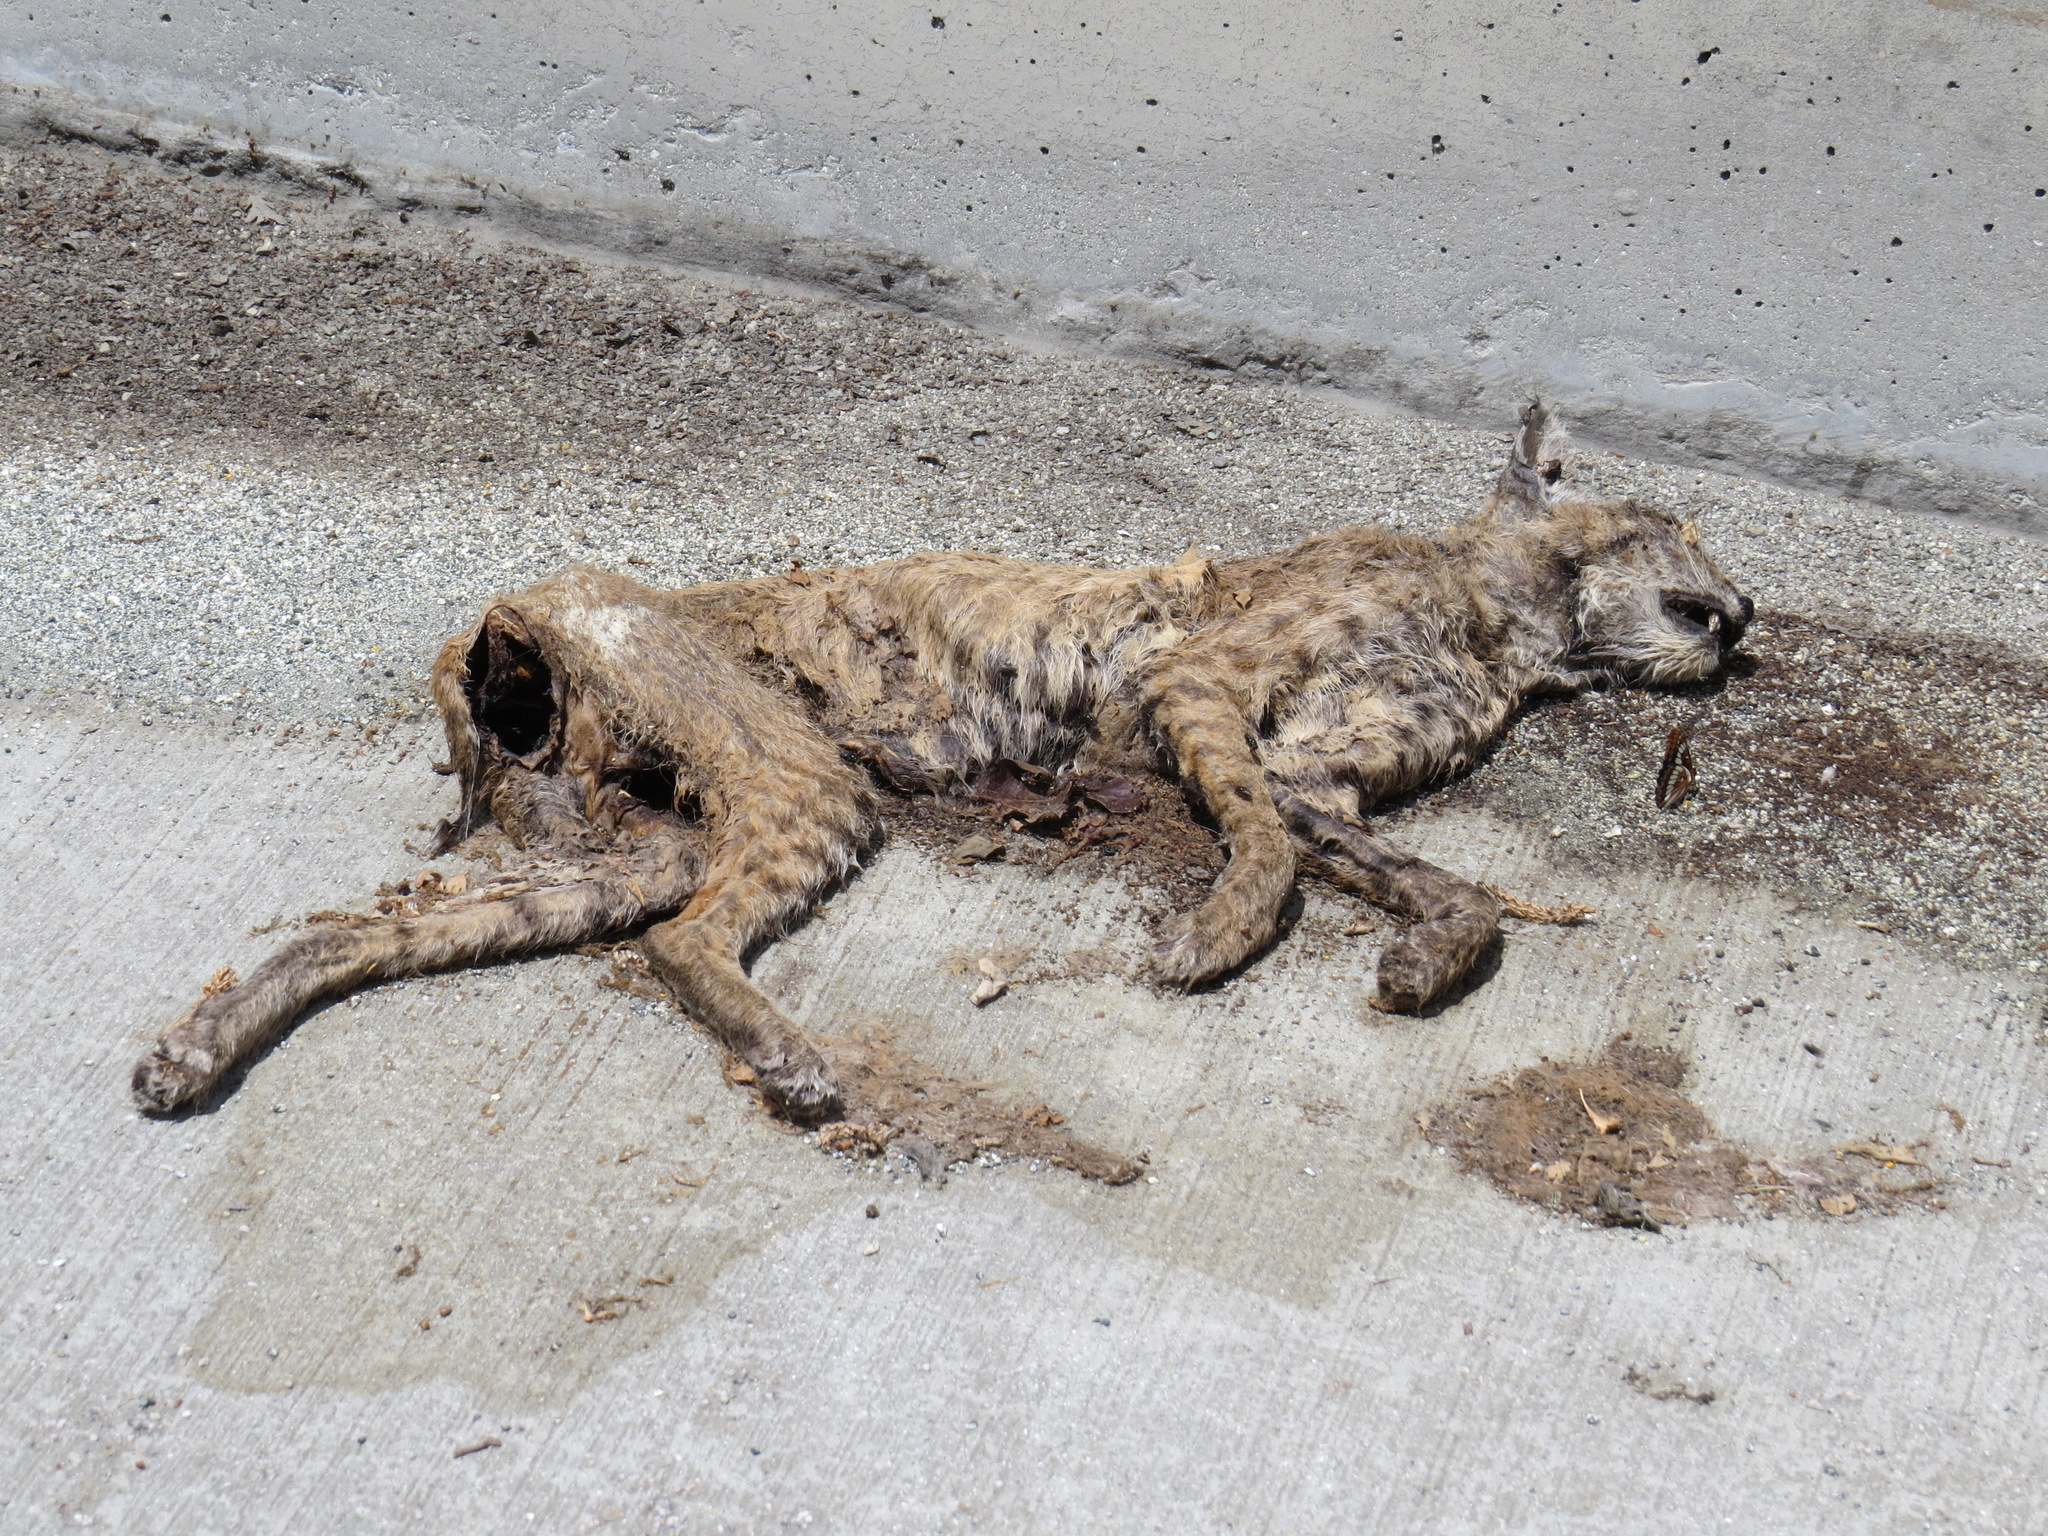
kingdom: Animalia
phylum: Chordata
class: Mammalia
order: Carnivora
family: Felidae
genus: Lynx
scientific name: Lynx rufus
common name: Bobcat
